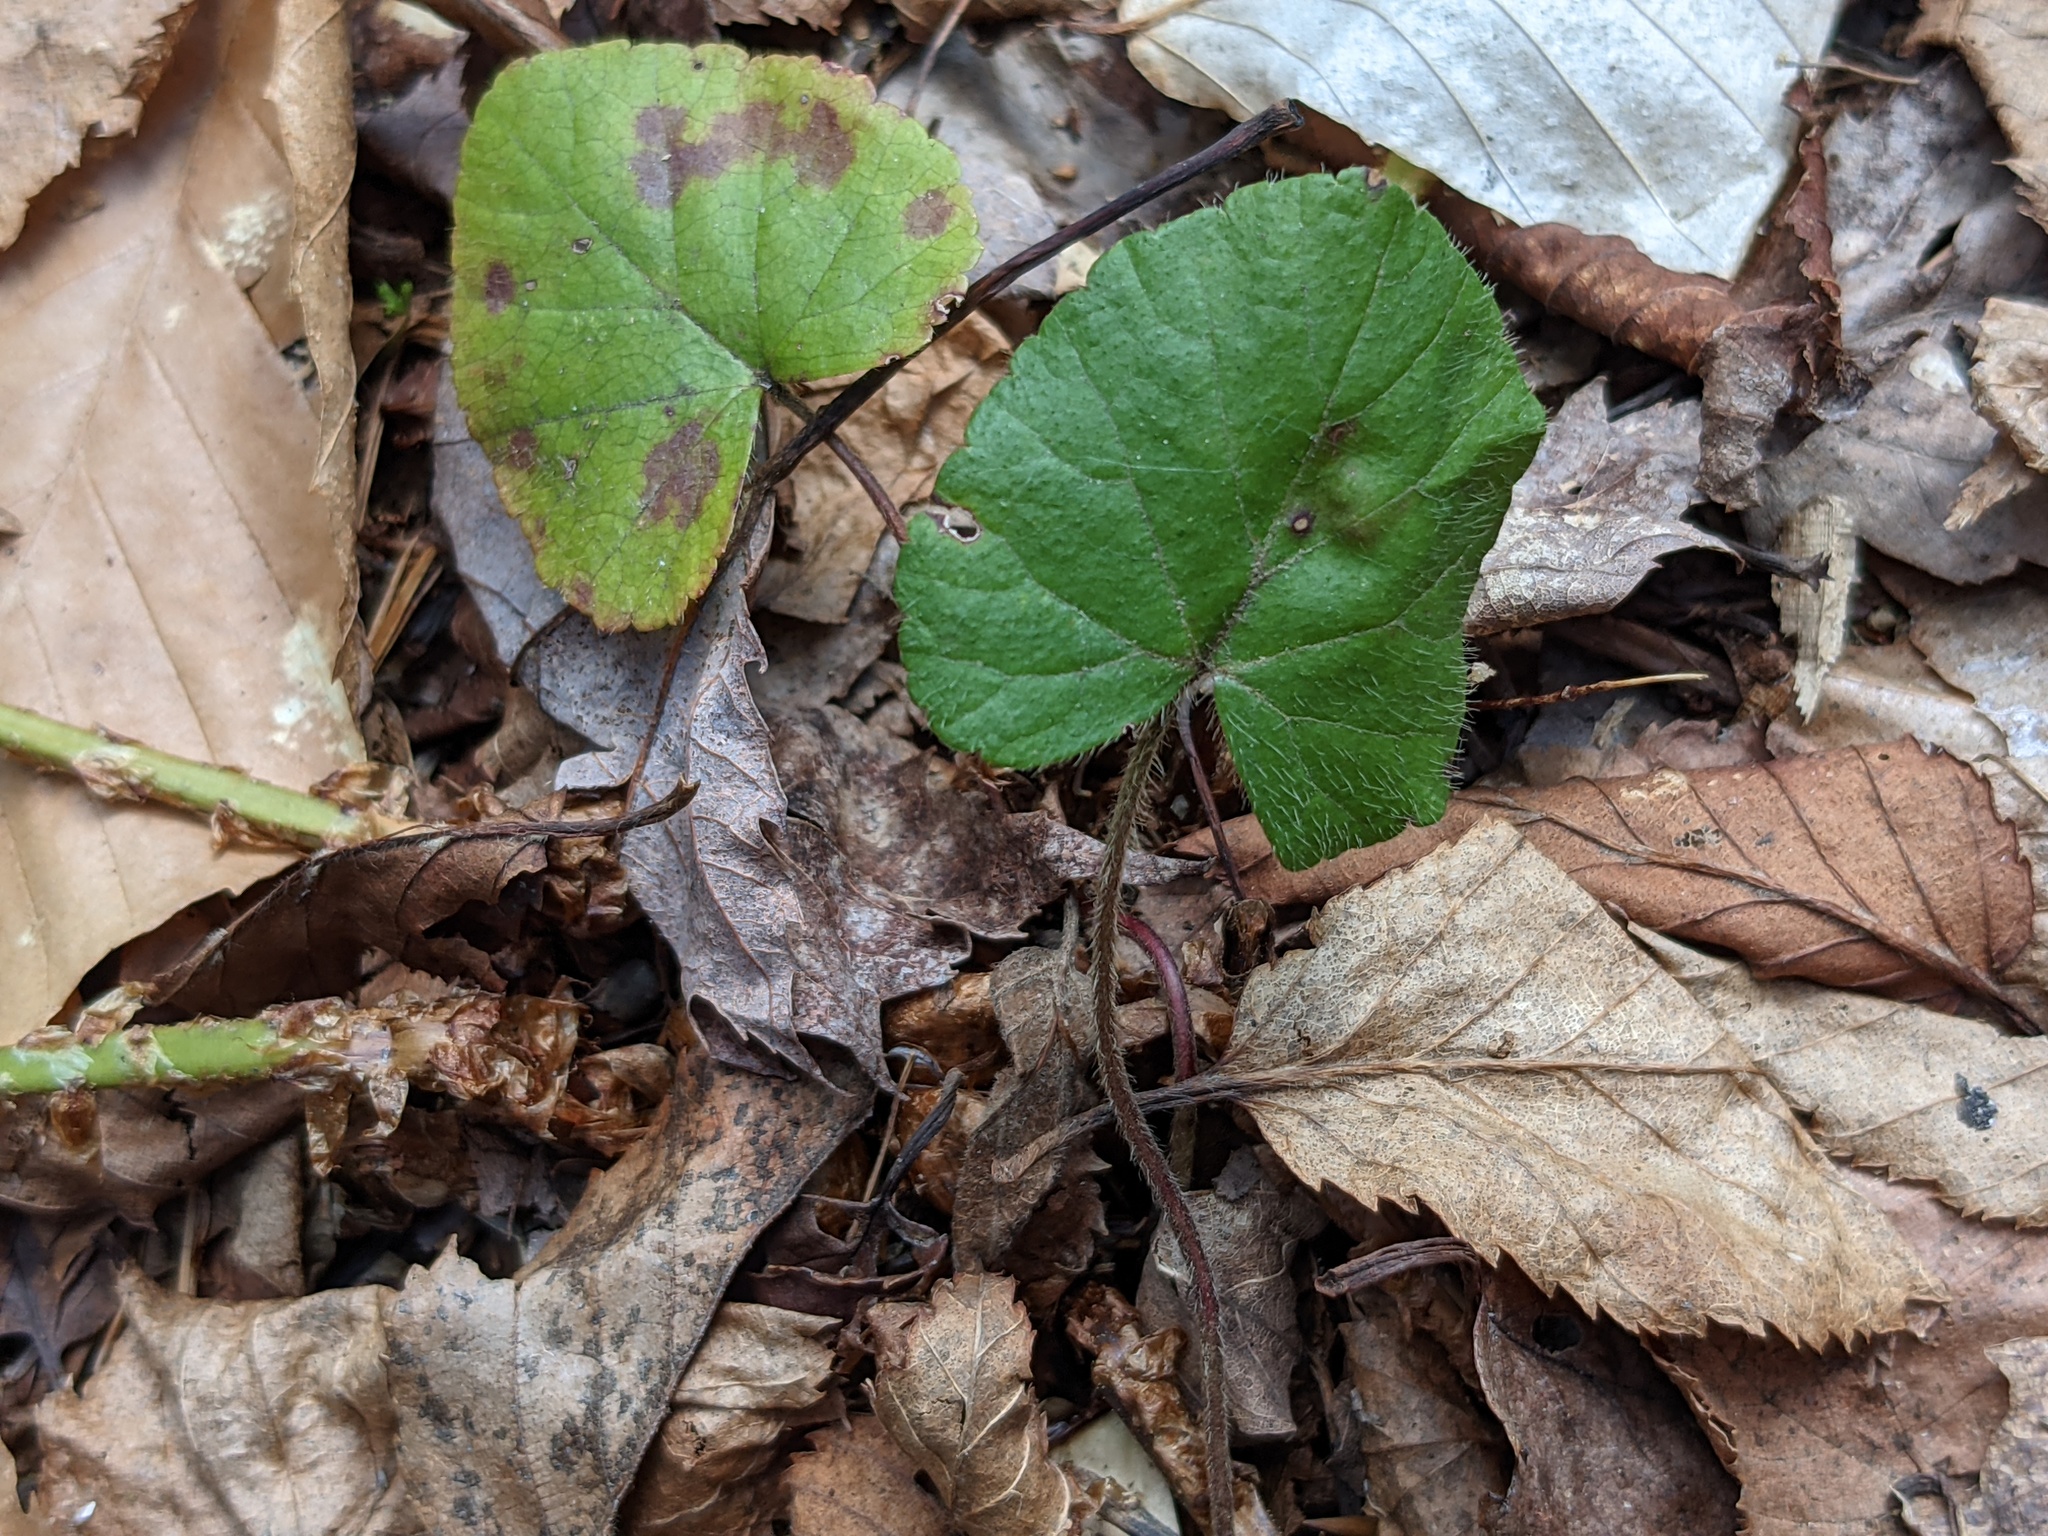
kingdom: Plantae
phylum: Tracheophyta
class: Magnoliopsida
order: Rosales
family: Rosaceae
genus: Dalibarda
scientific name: Dalibarda repens
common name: Dewdrop
